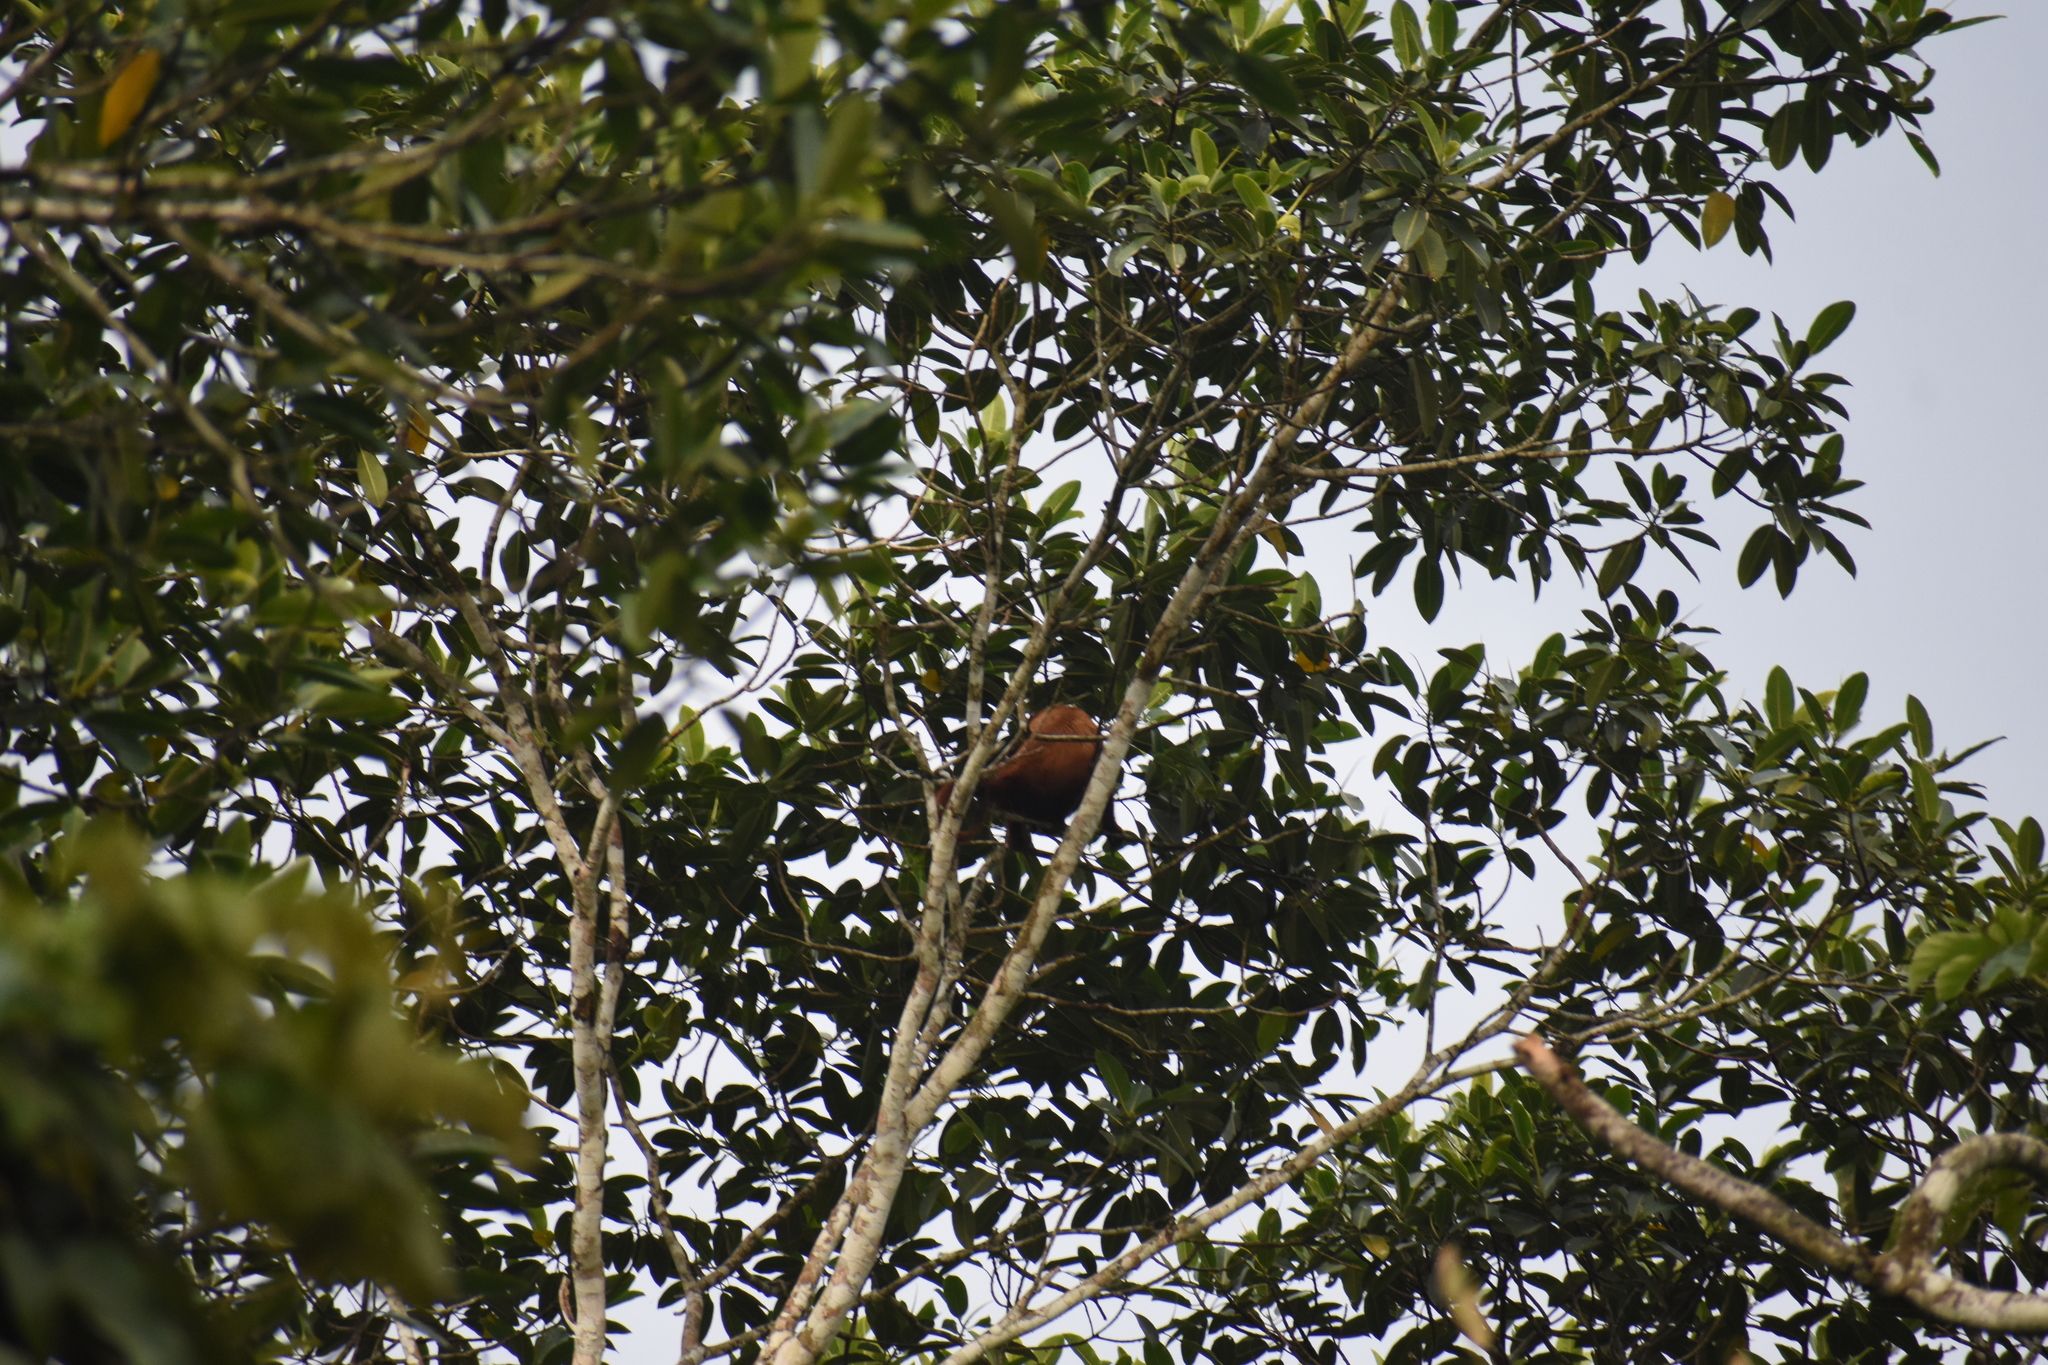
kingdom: Animalia
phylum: Chordata
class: Mammalia
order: Primates
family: Atelidae
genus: Alouatta
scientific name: Alouatta seniculus
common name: Venezuelan red howler
